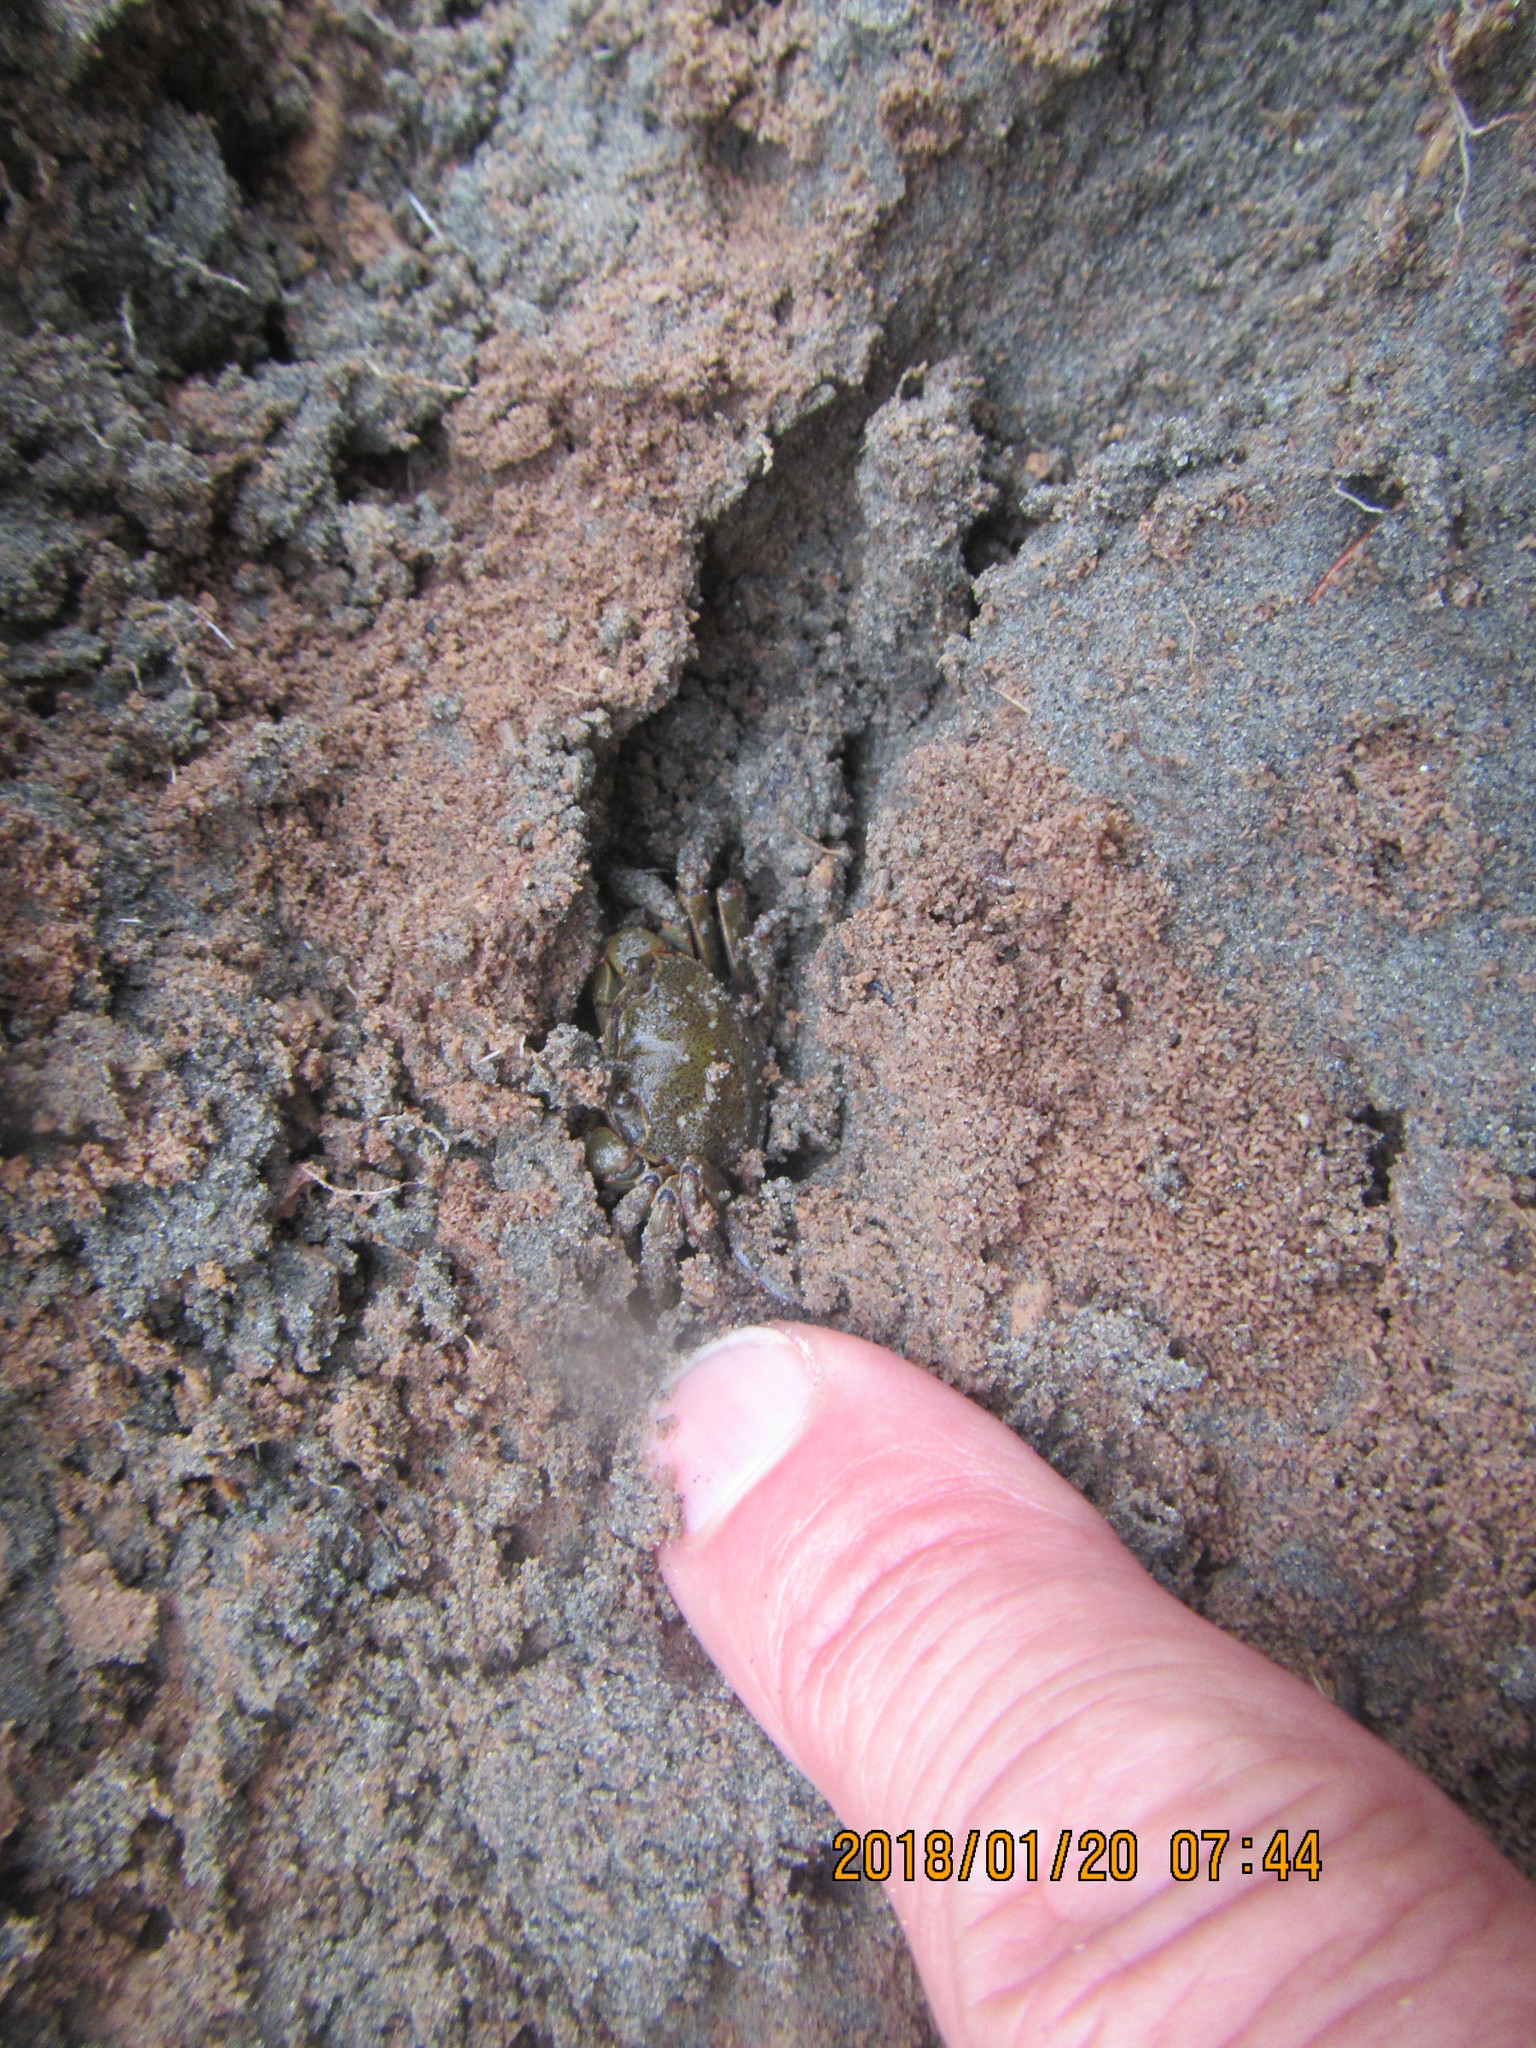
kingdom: Animalia
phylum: Arthropoda
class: Malacostraca
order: Decapoda
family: Varunidae
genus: Austrohelice
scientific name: Austrohelice crassa
